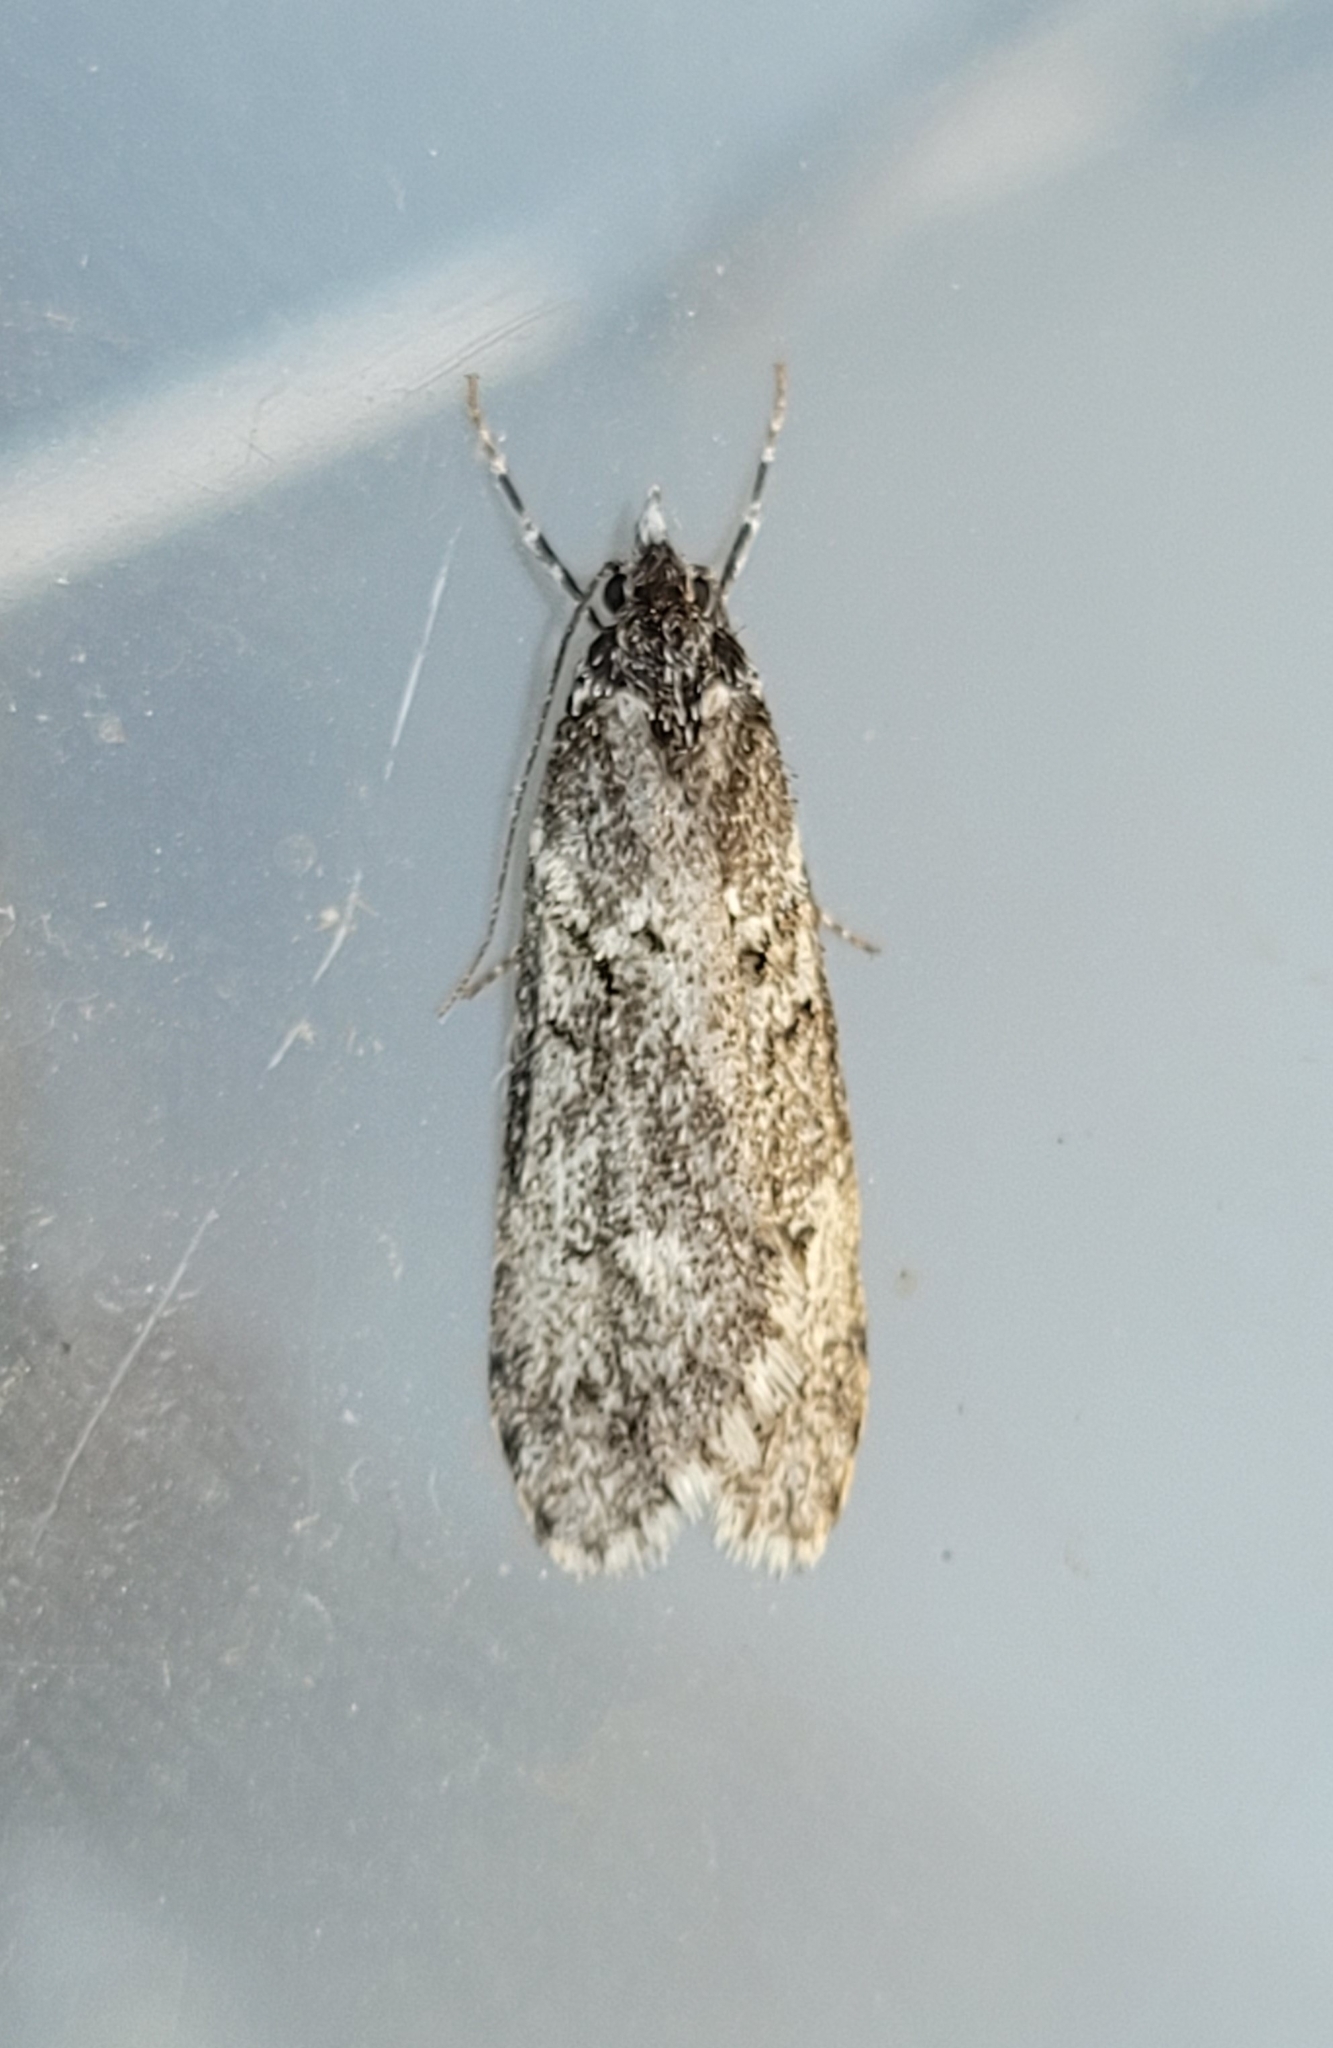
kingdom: Animalia
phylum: Arthropoda
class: Insecta
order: Lepidoptera
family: Lypusidae
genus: Diurnea
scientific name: Diurnea fagella
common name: March tubic
